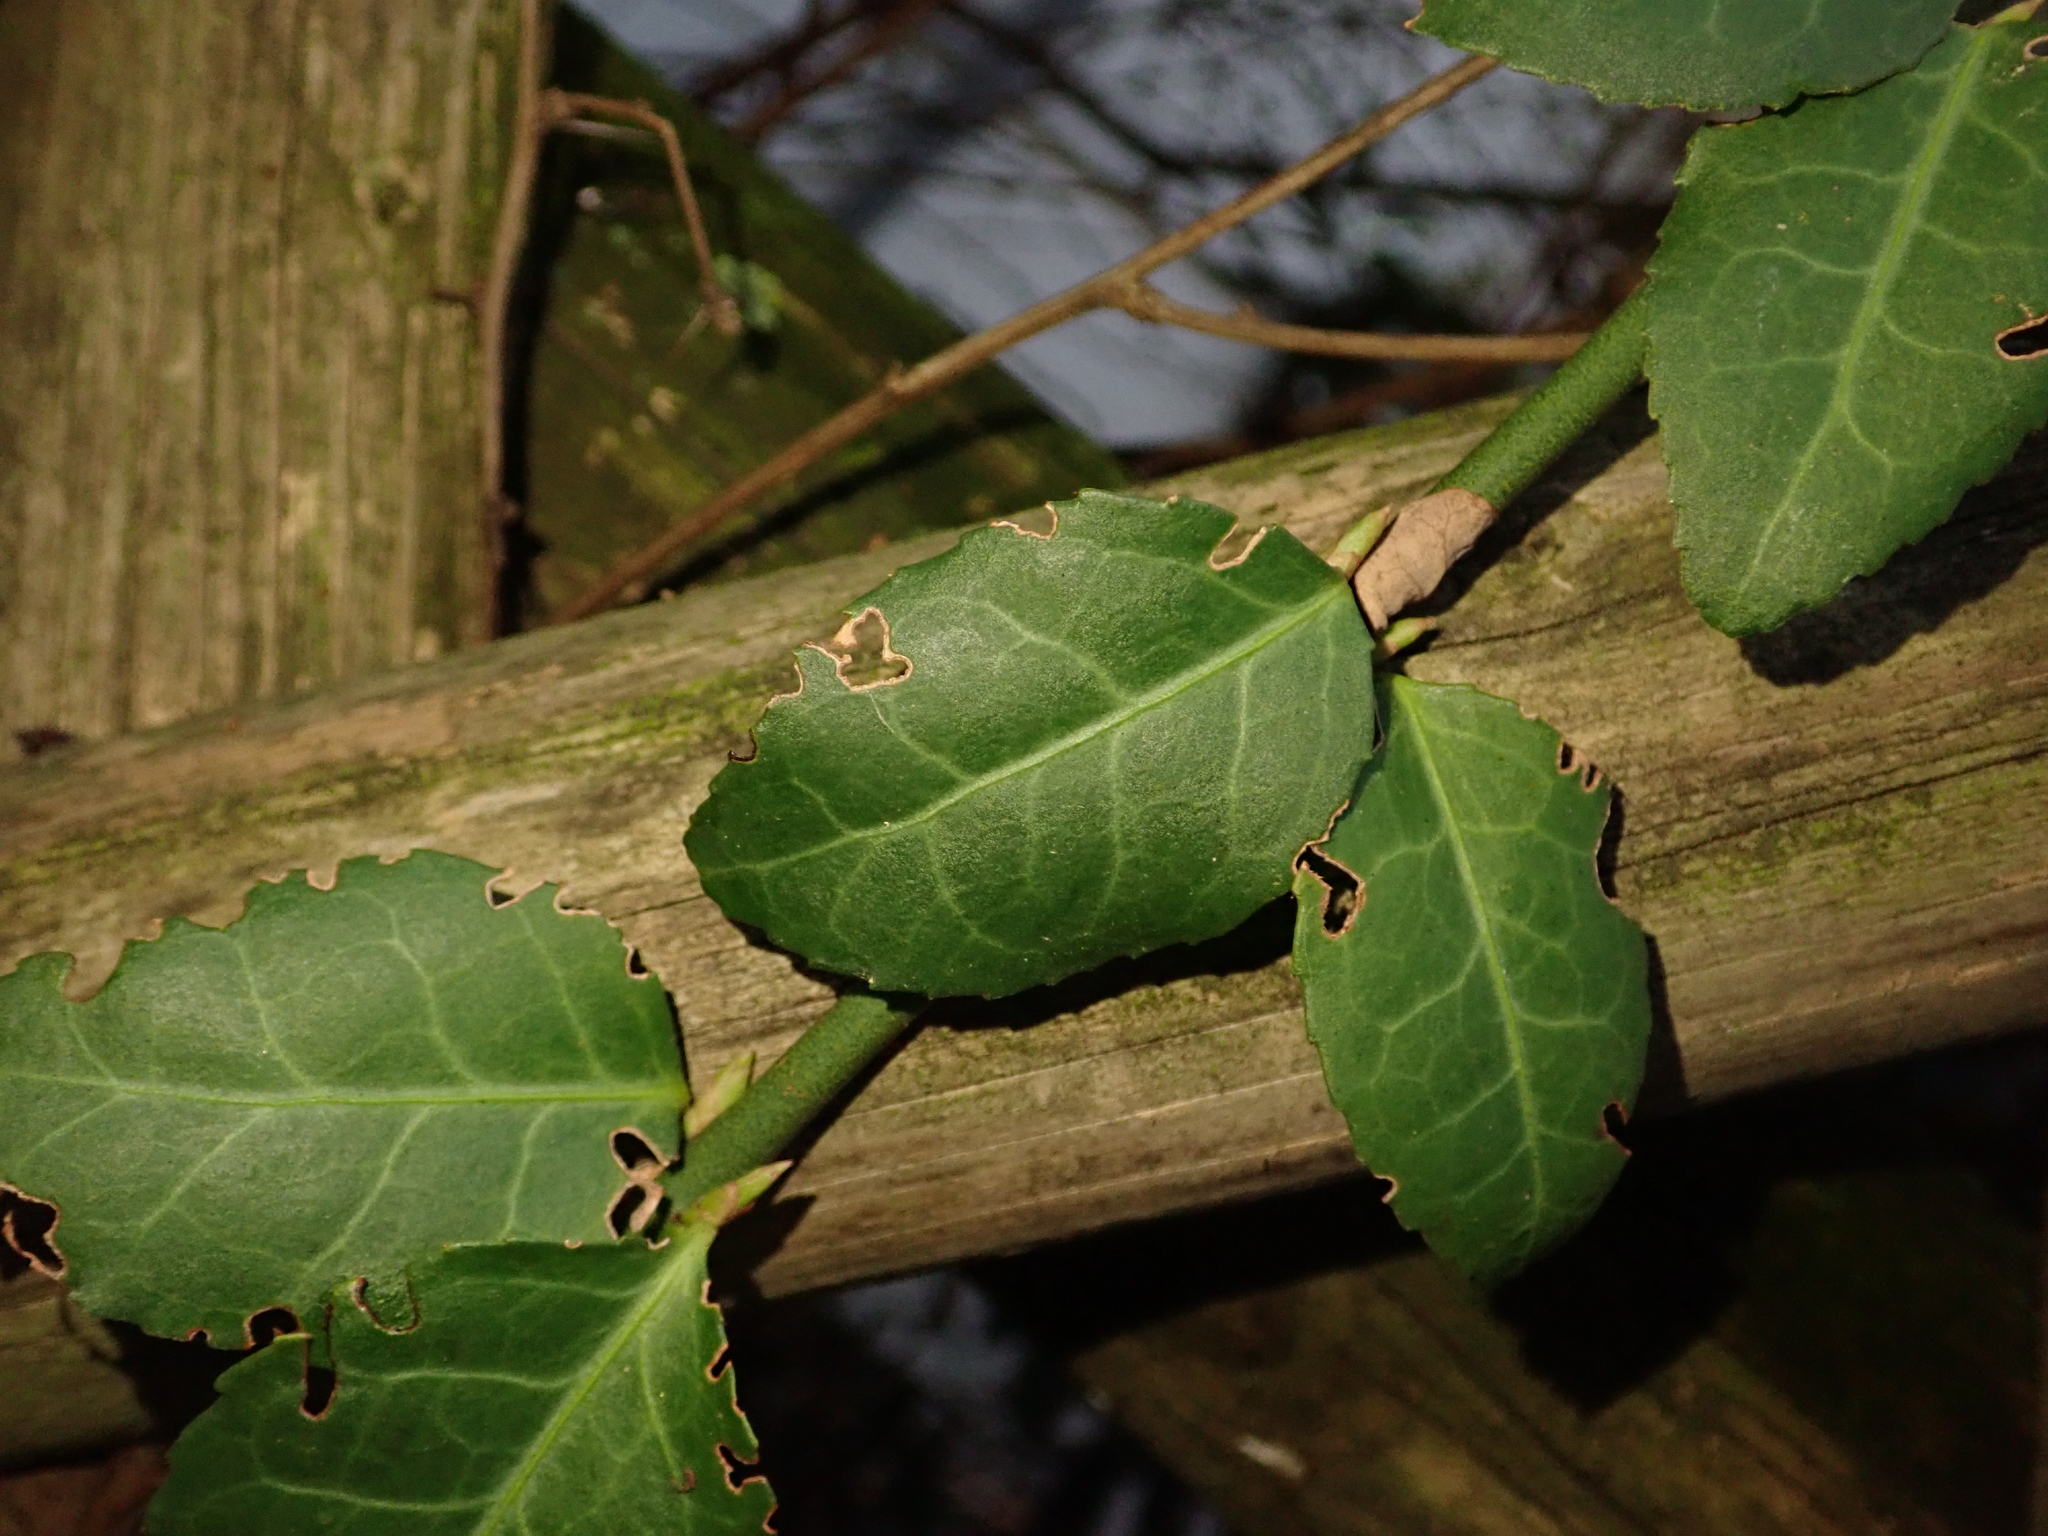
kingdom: Plantae
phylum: Tracheophyta
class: Magnoliopsida
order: Celastrales
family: Celastraceae
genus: Euonymus
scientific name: Euonymus fortunei
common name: Climbing euonymus
